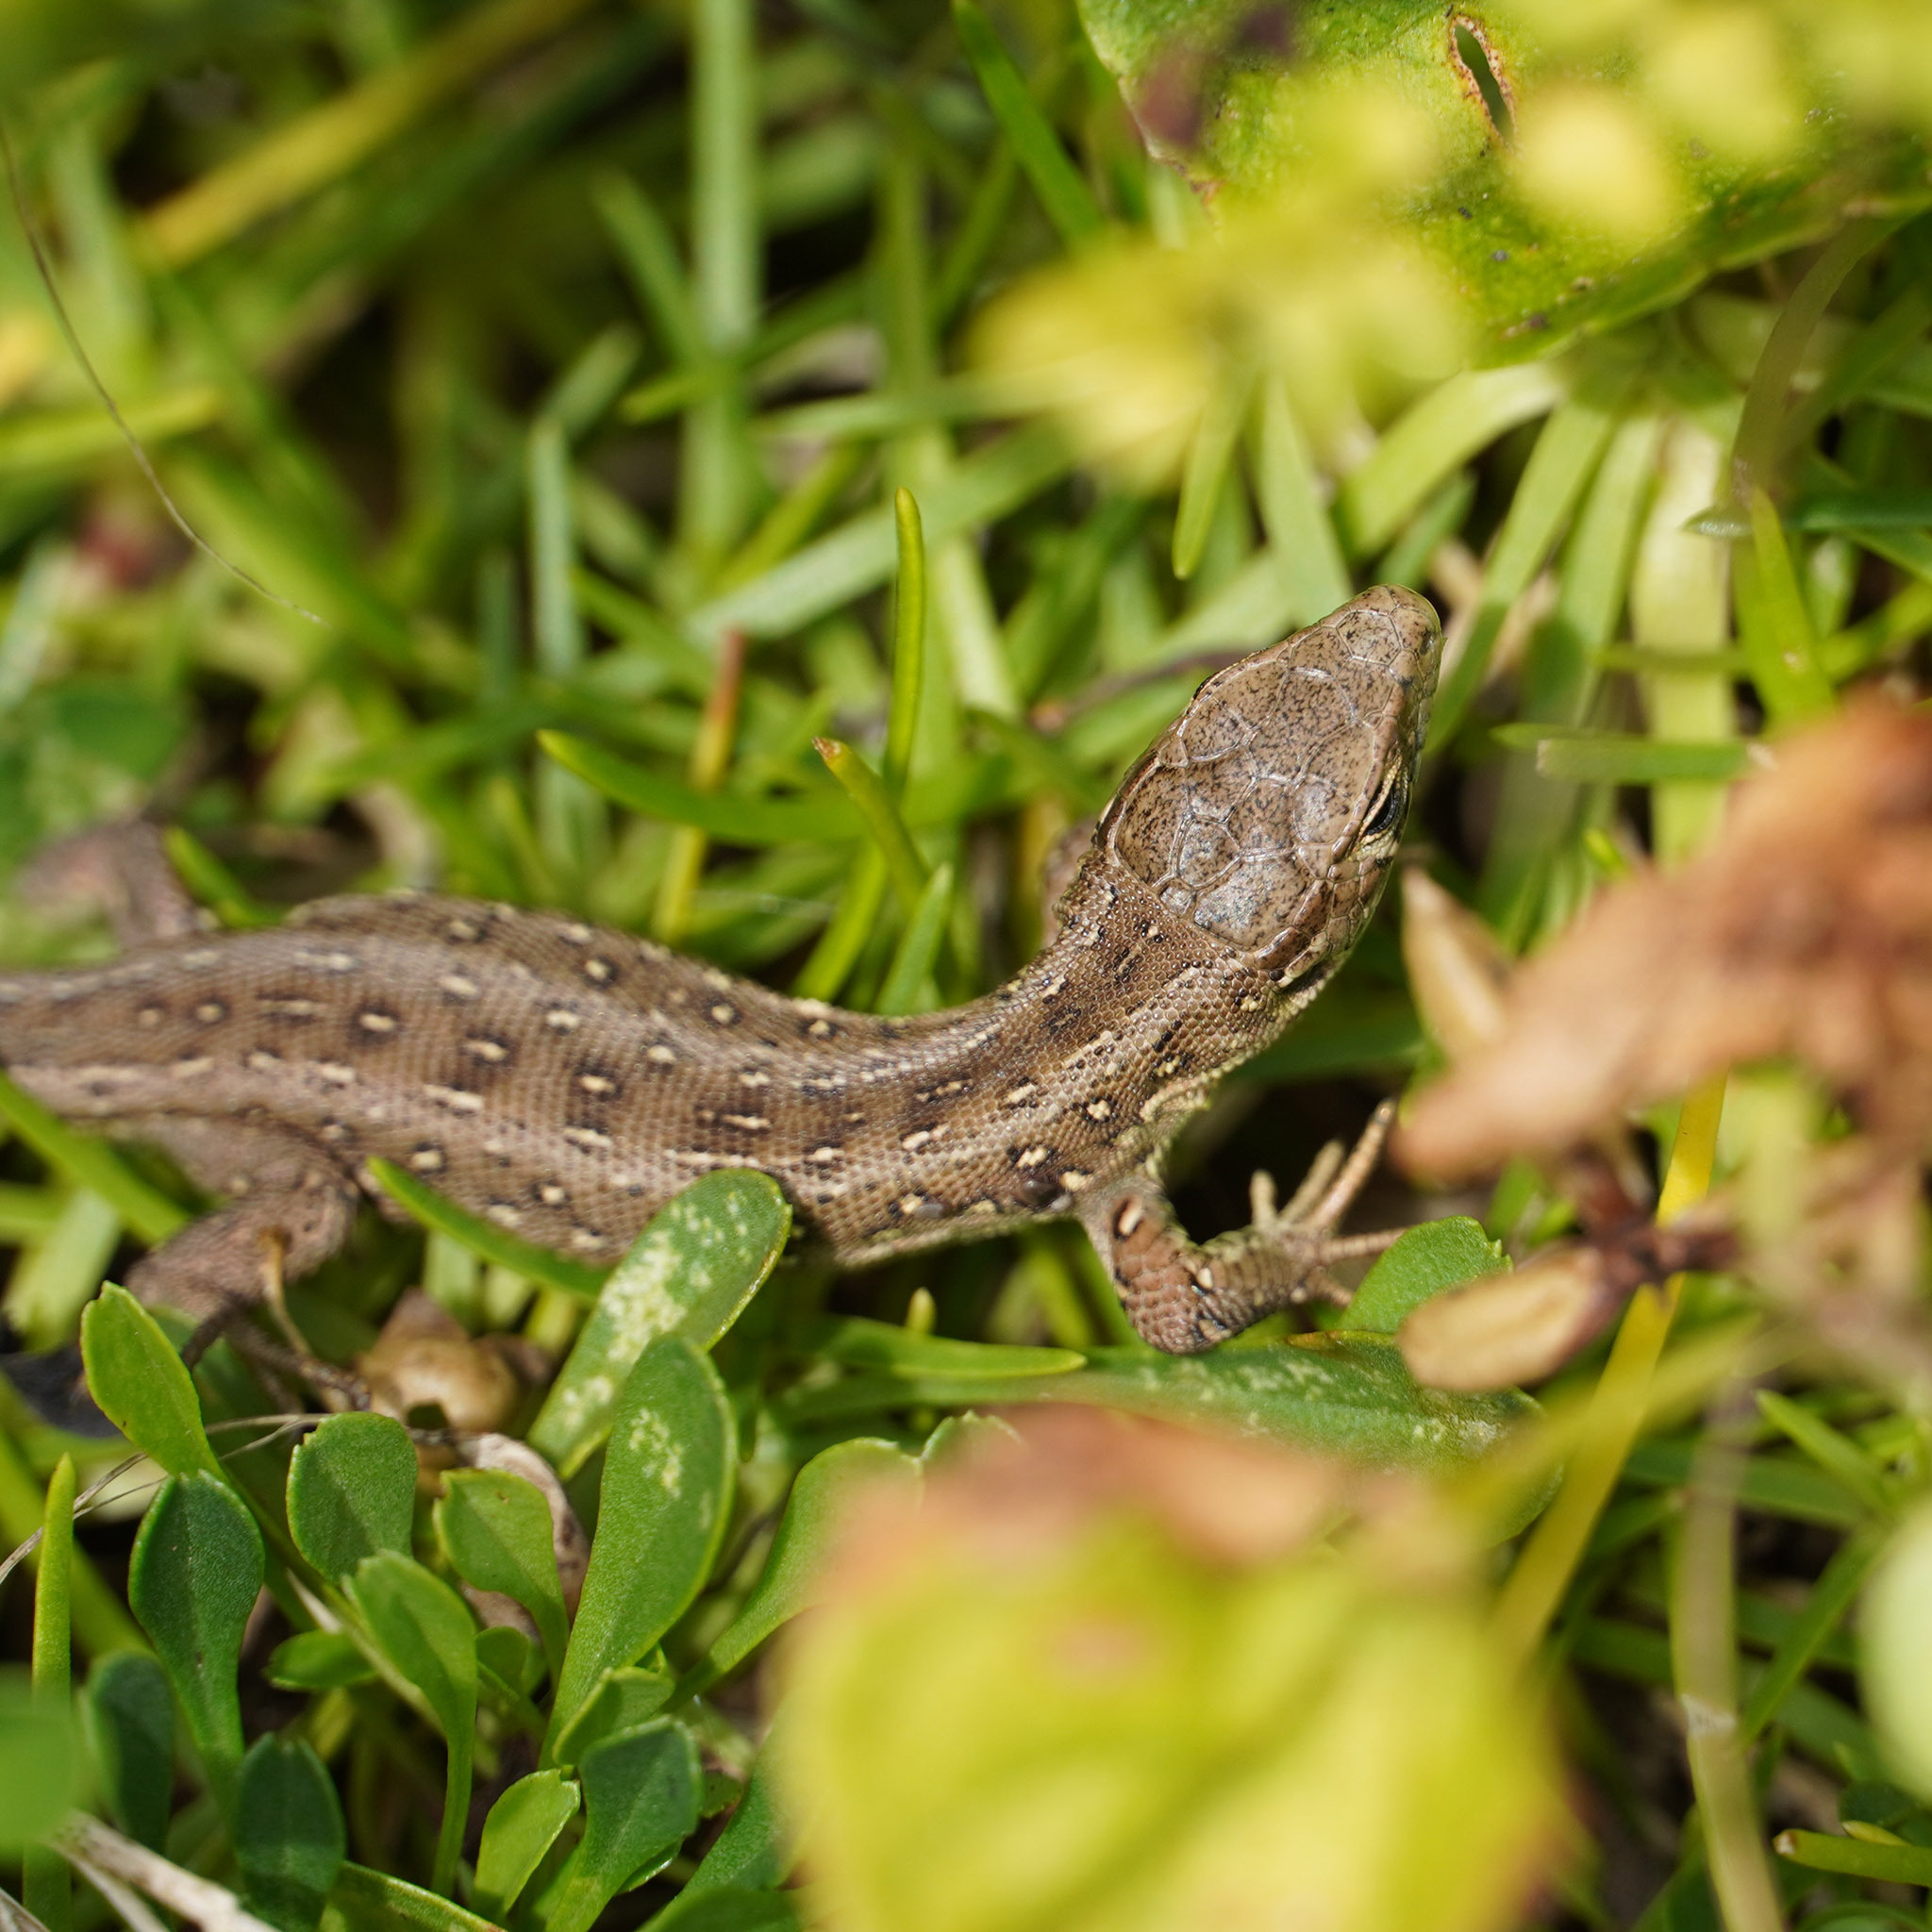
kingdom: Animalia
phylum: Chordata
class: Squamata
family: Lacertidae
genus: Lacerta
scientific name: Lacerta agilis
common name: Sand lizard
